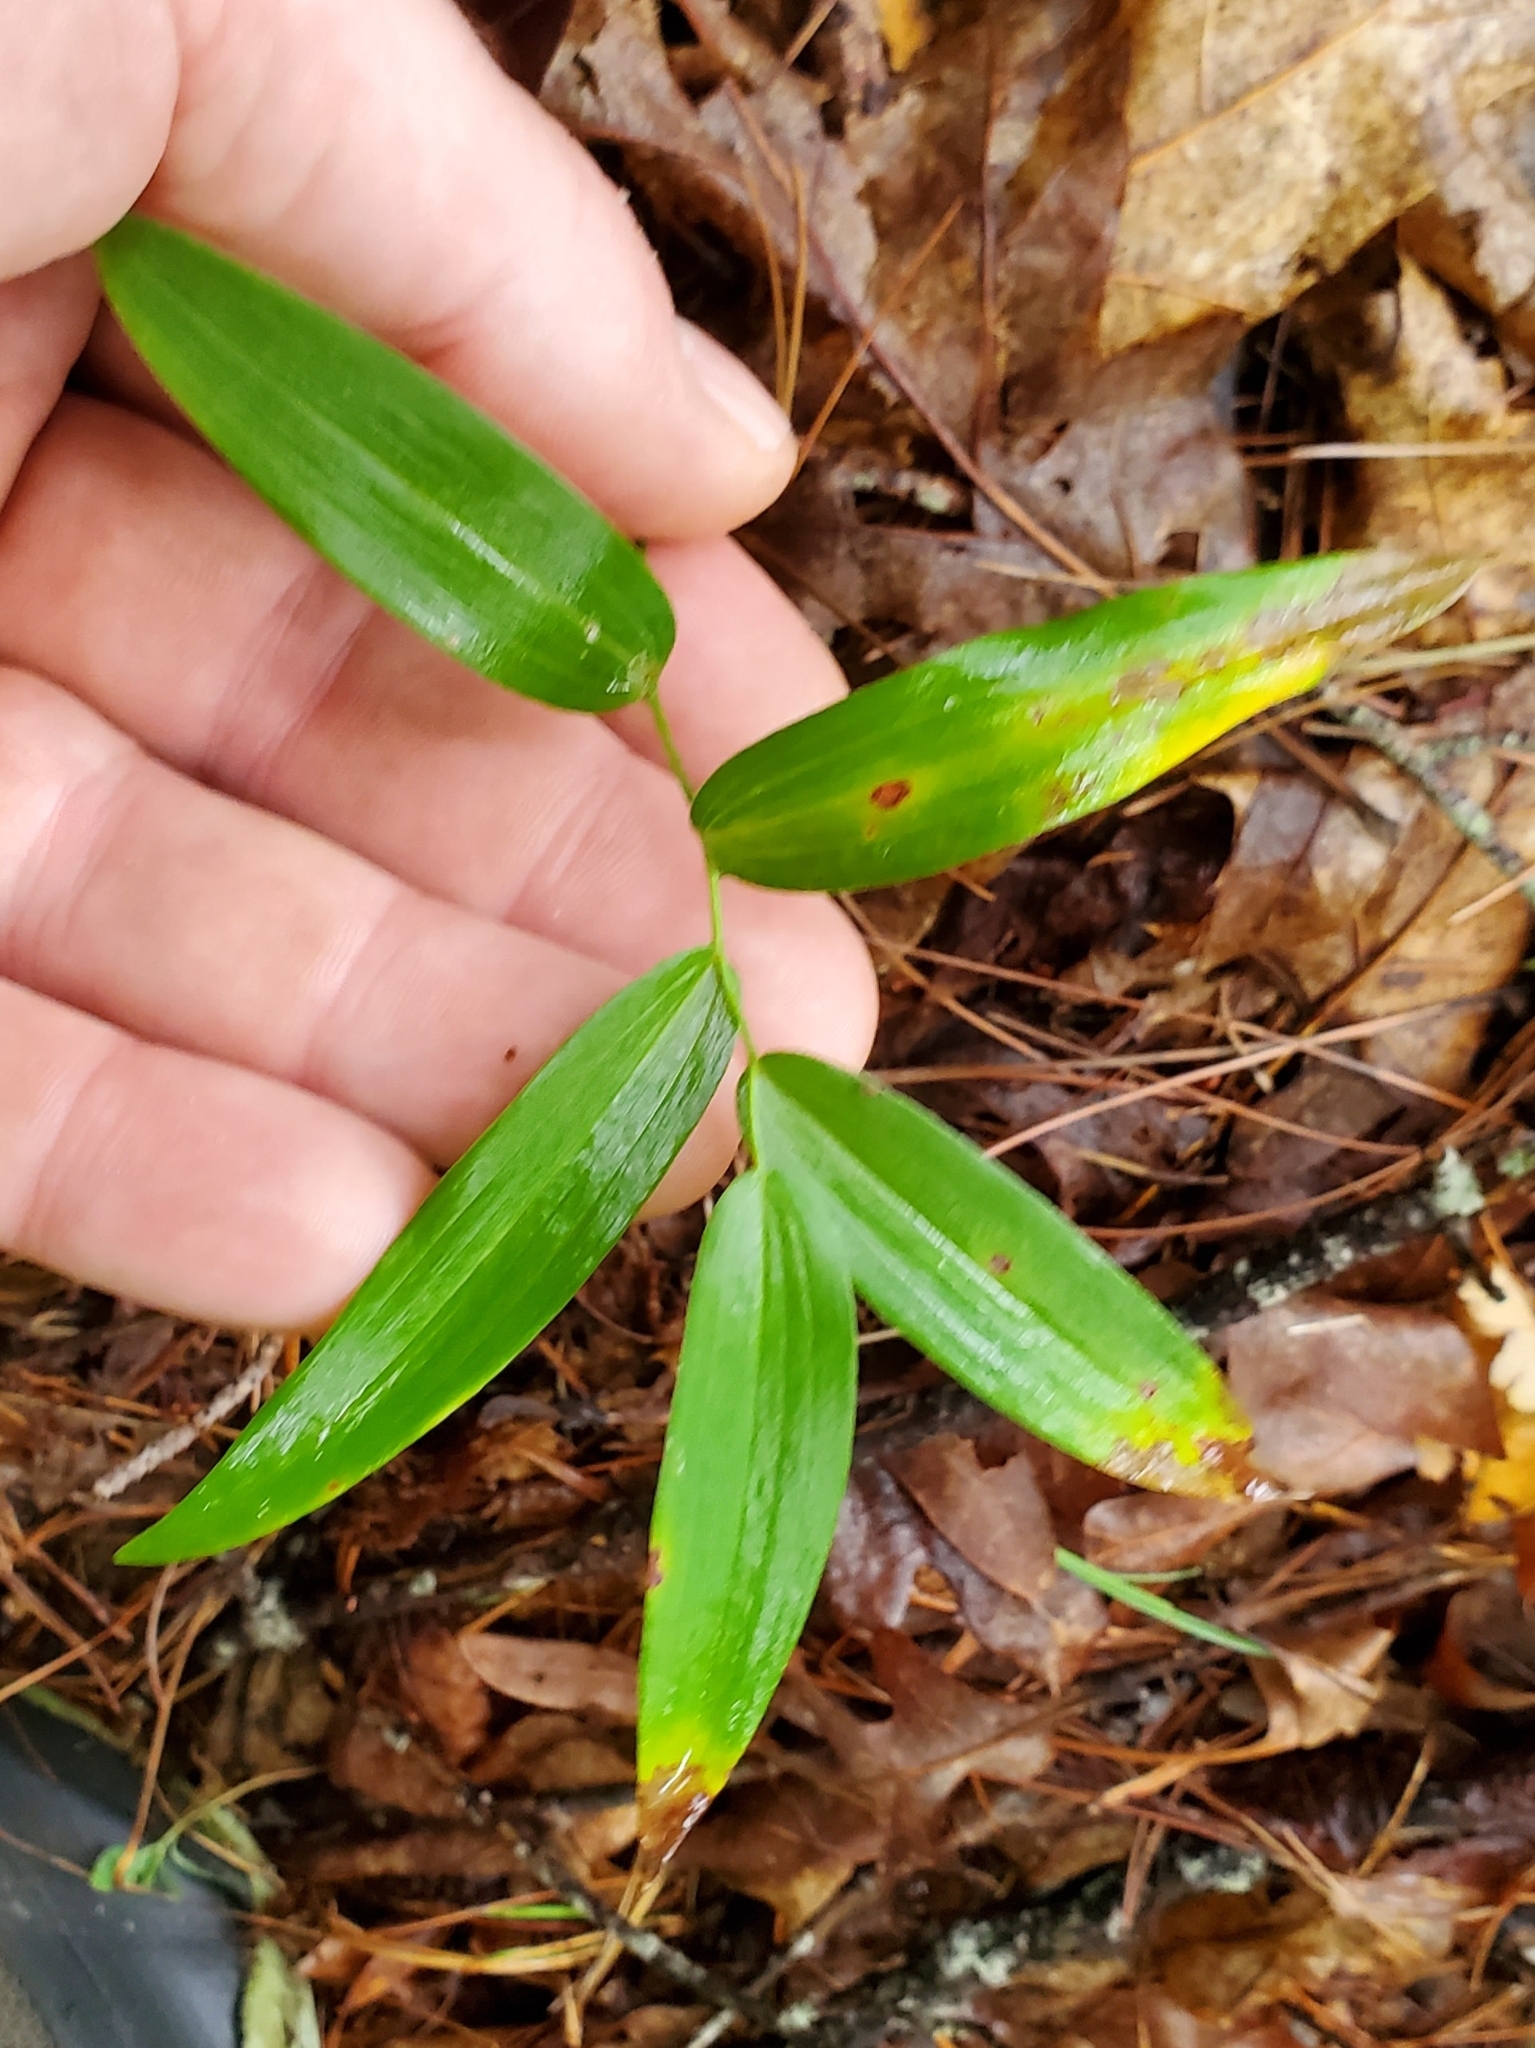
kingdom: Plantae
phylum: Tracheophyta
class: Liliopsida
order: Asparagales
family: Asparagaceae
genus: Polygonatum
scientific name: Polygonatum biflorum
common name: American solomon's-seal
